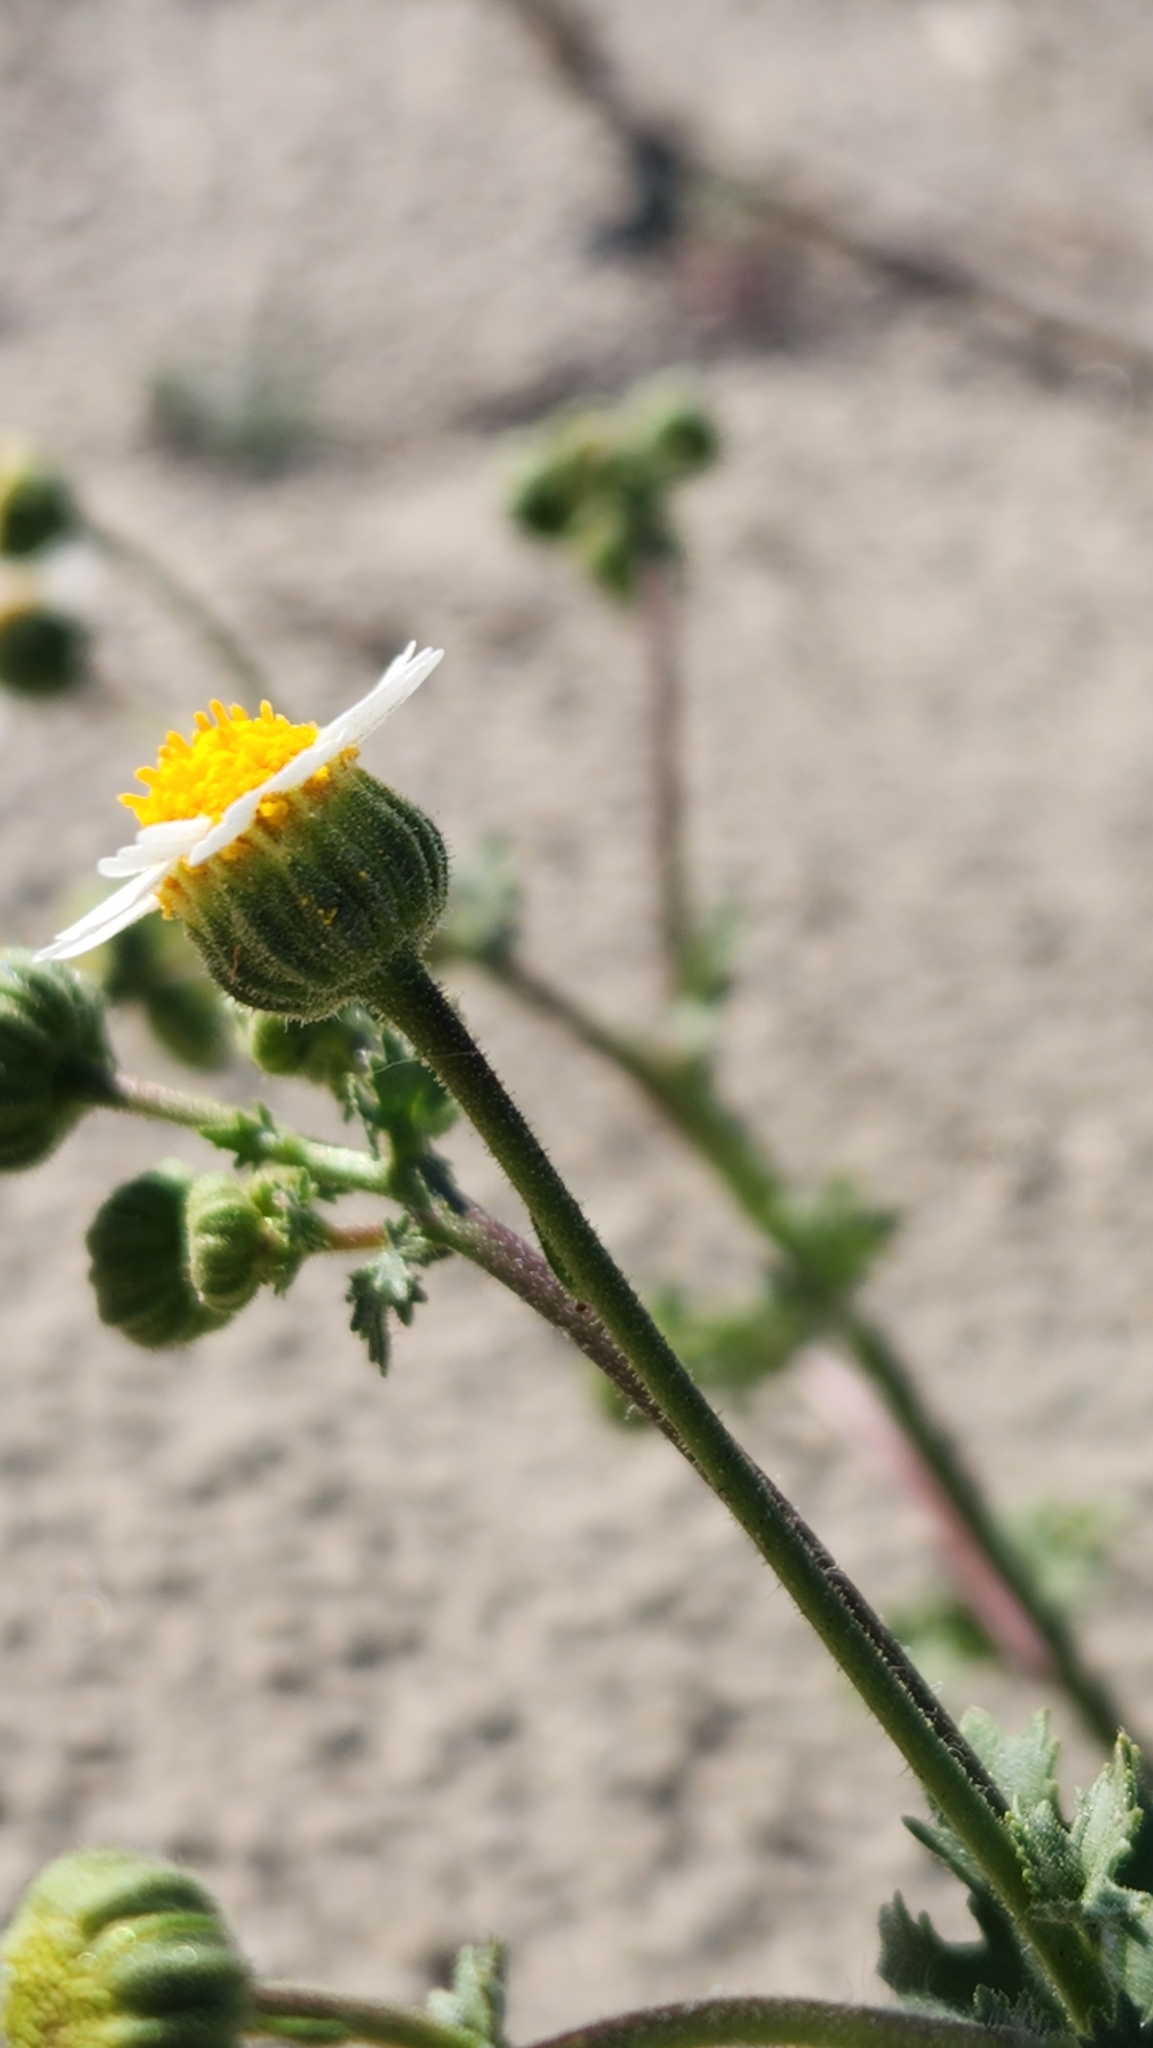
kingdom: Plantae
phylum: Tracheophyta
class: Magnoliopsida
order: Asterales
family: Asteraceae
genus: Laphamia
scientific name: Laphamia emoryi
